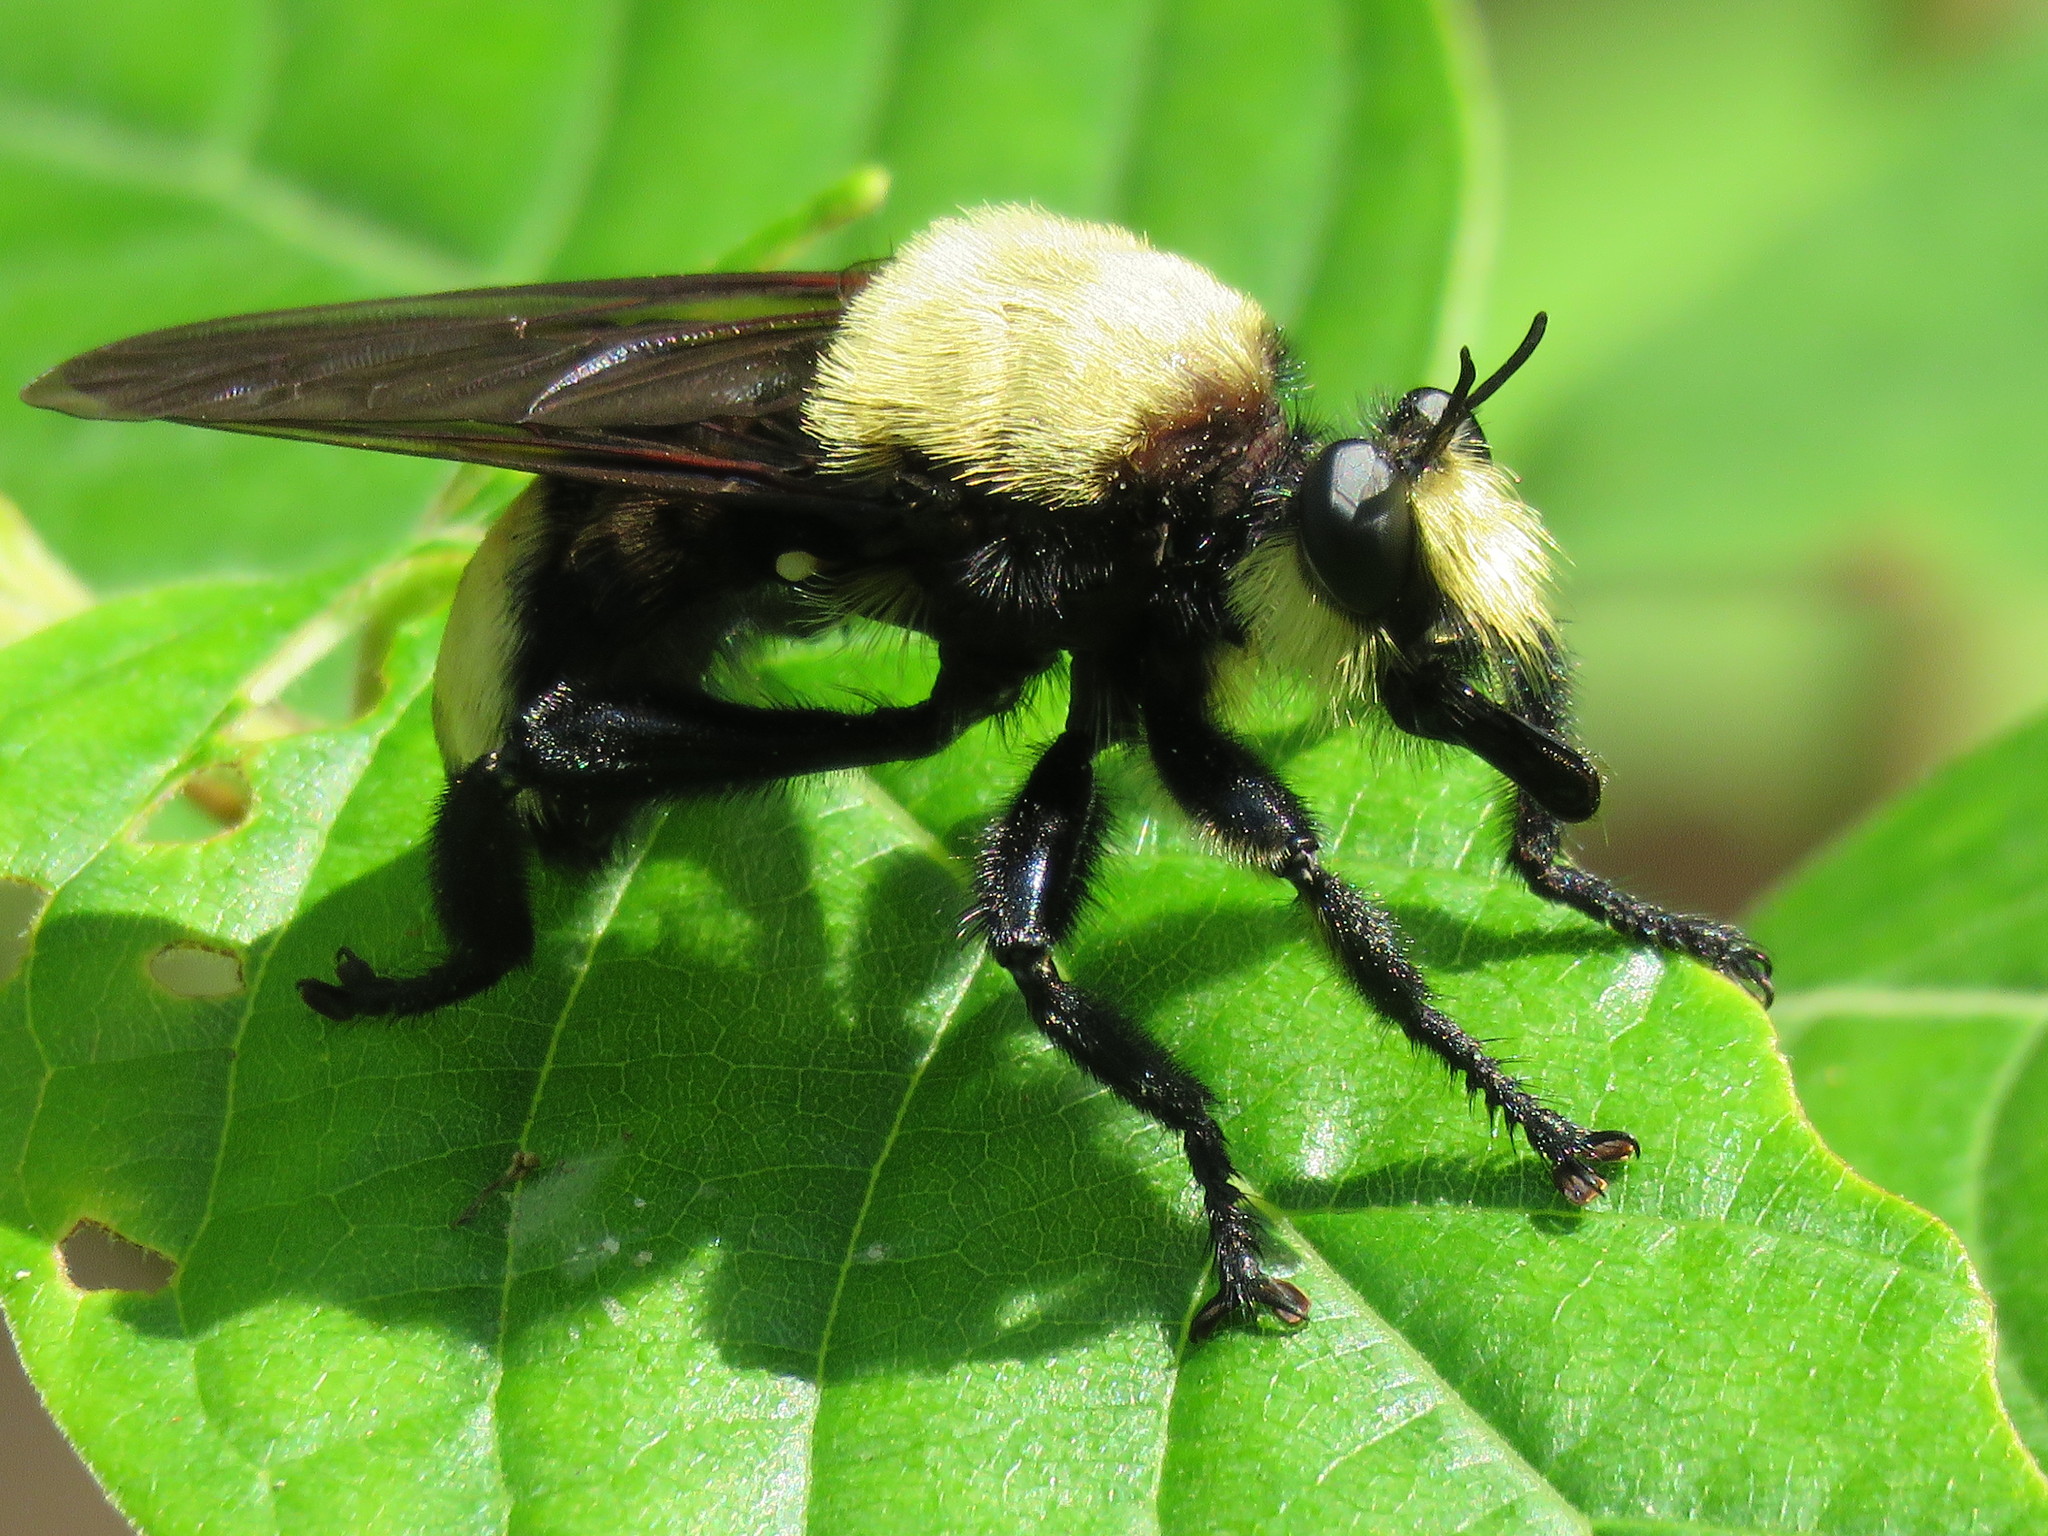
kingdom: Animalia
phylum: Arthropoda
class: Insecta
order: Diptera
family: Asilidae
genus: Laphria
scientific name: Laphria flavicollis
